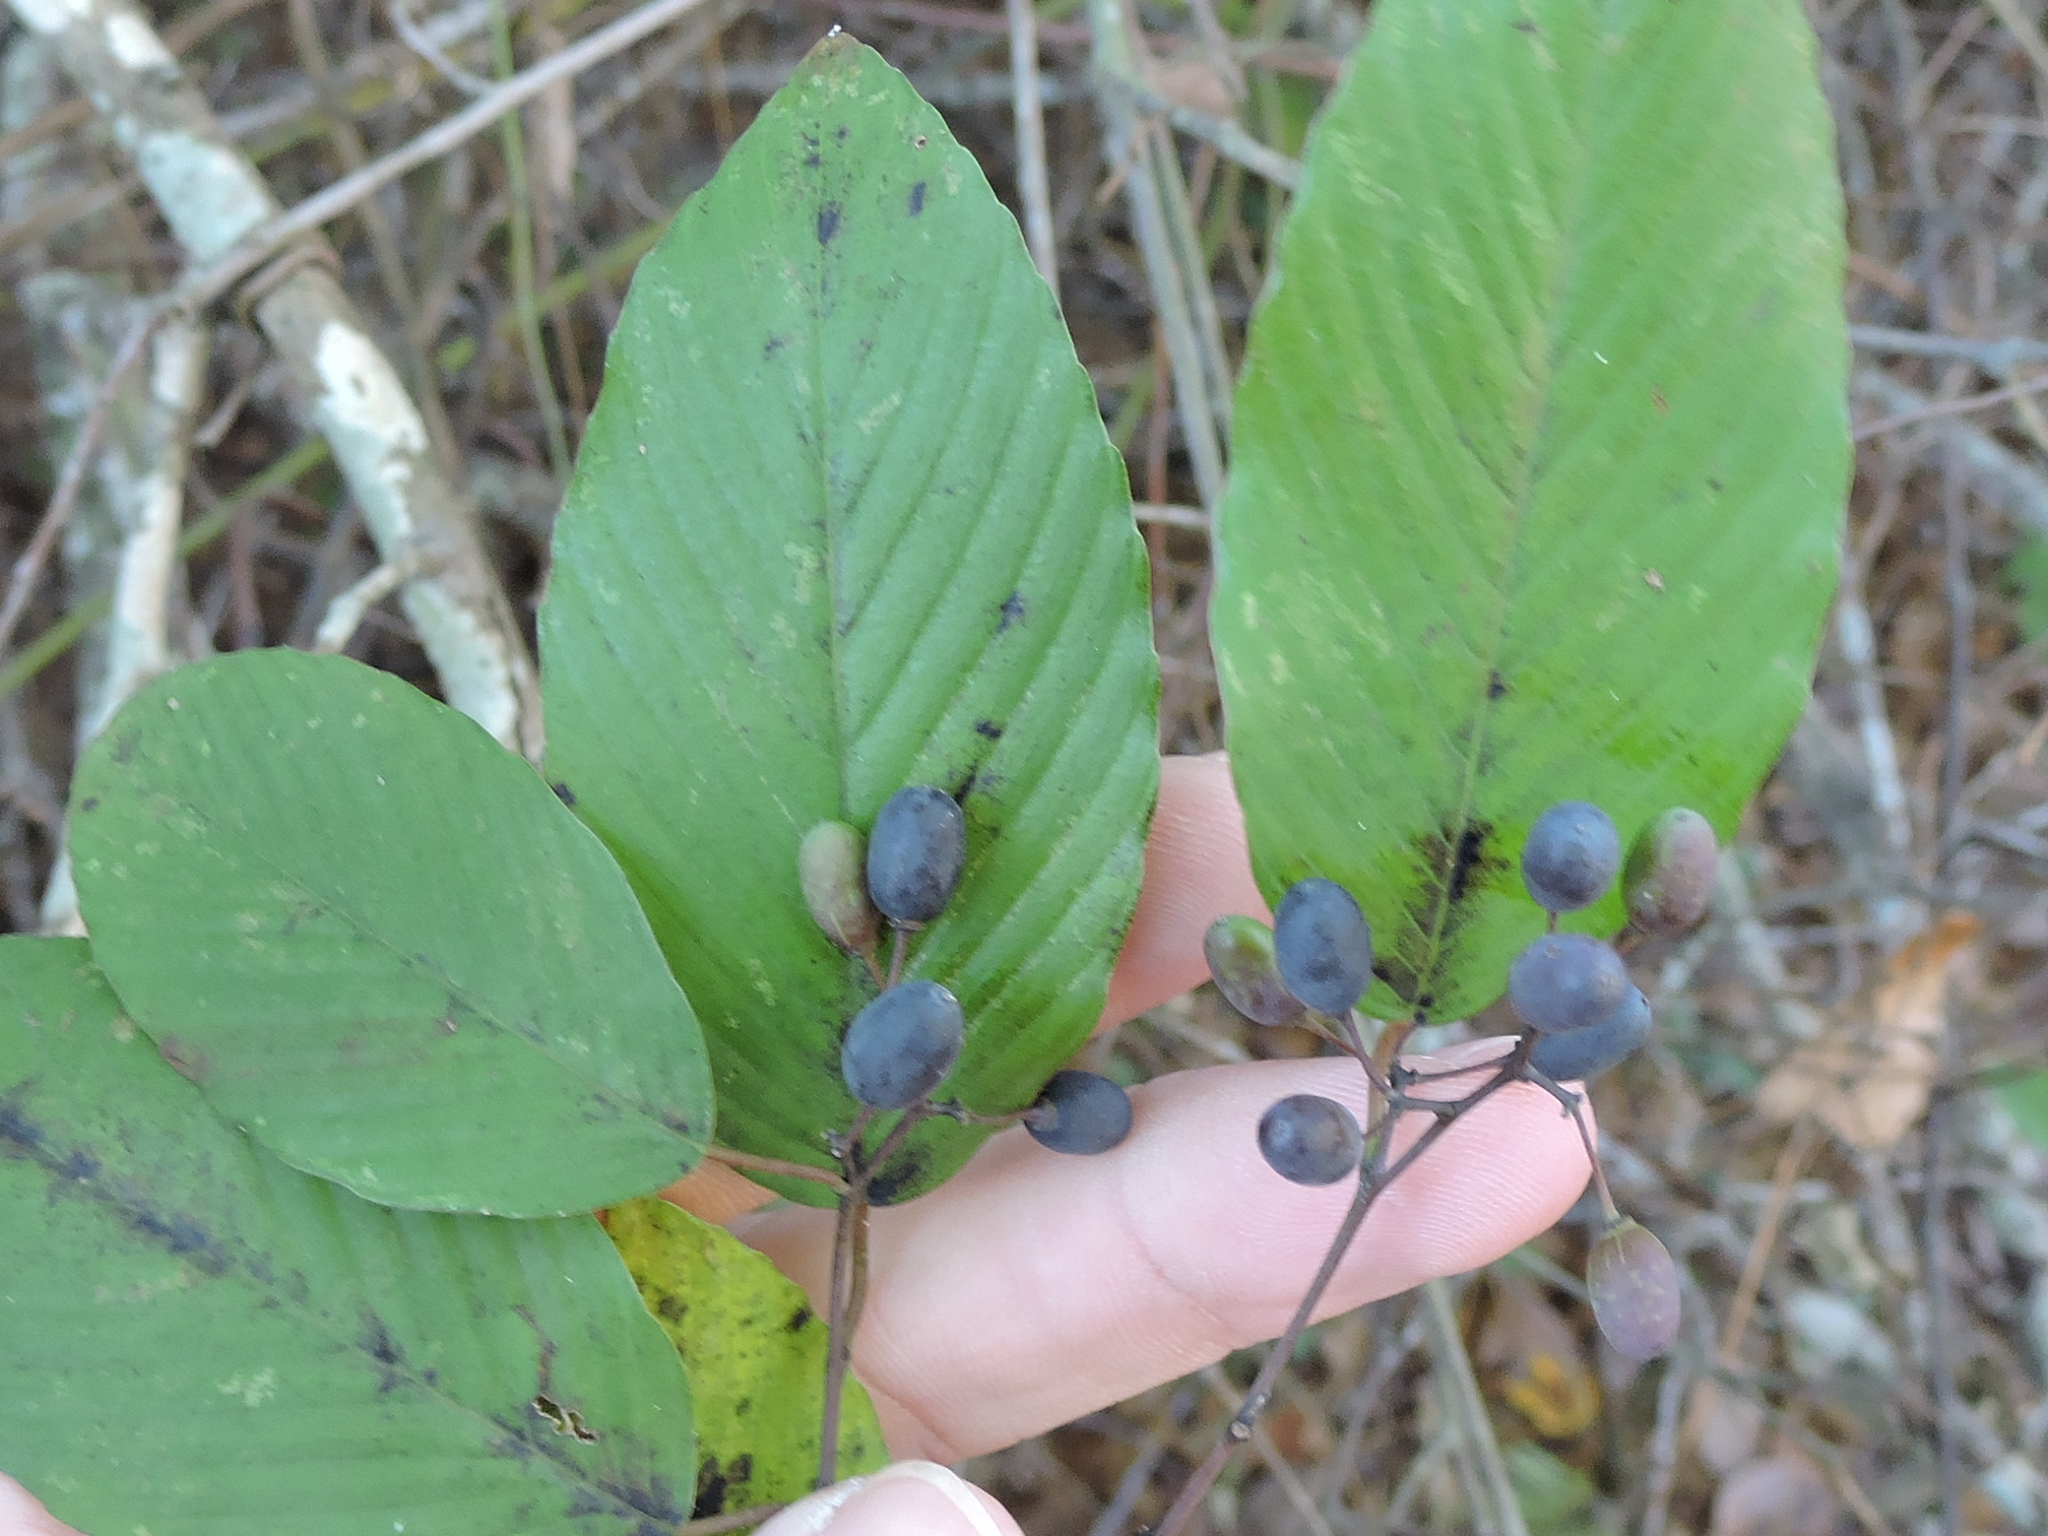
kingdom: Plantae
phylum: Tracheophyta
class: Magnoliopsida
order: Rosales
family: Rhamnaceae
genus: Berchemia
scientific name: Berchemia scandens
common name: Supplejack
